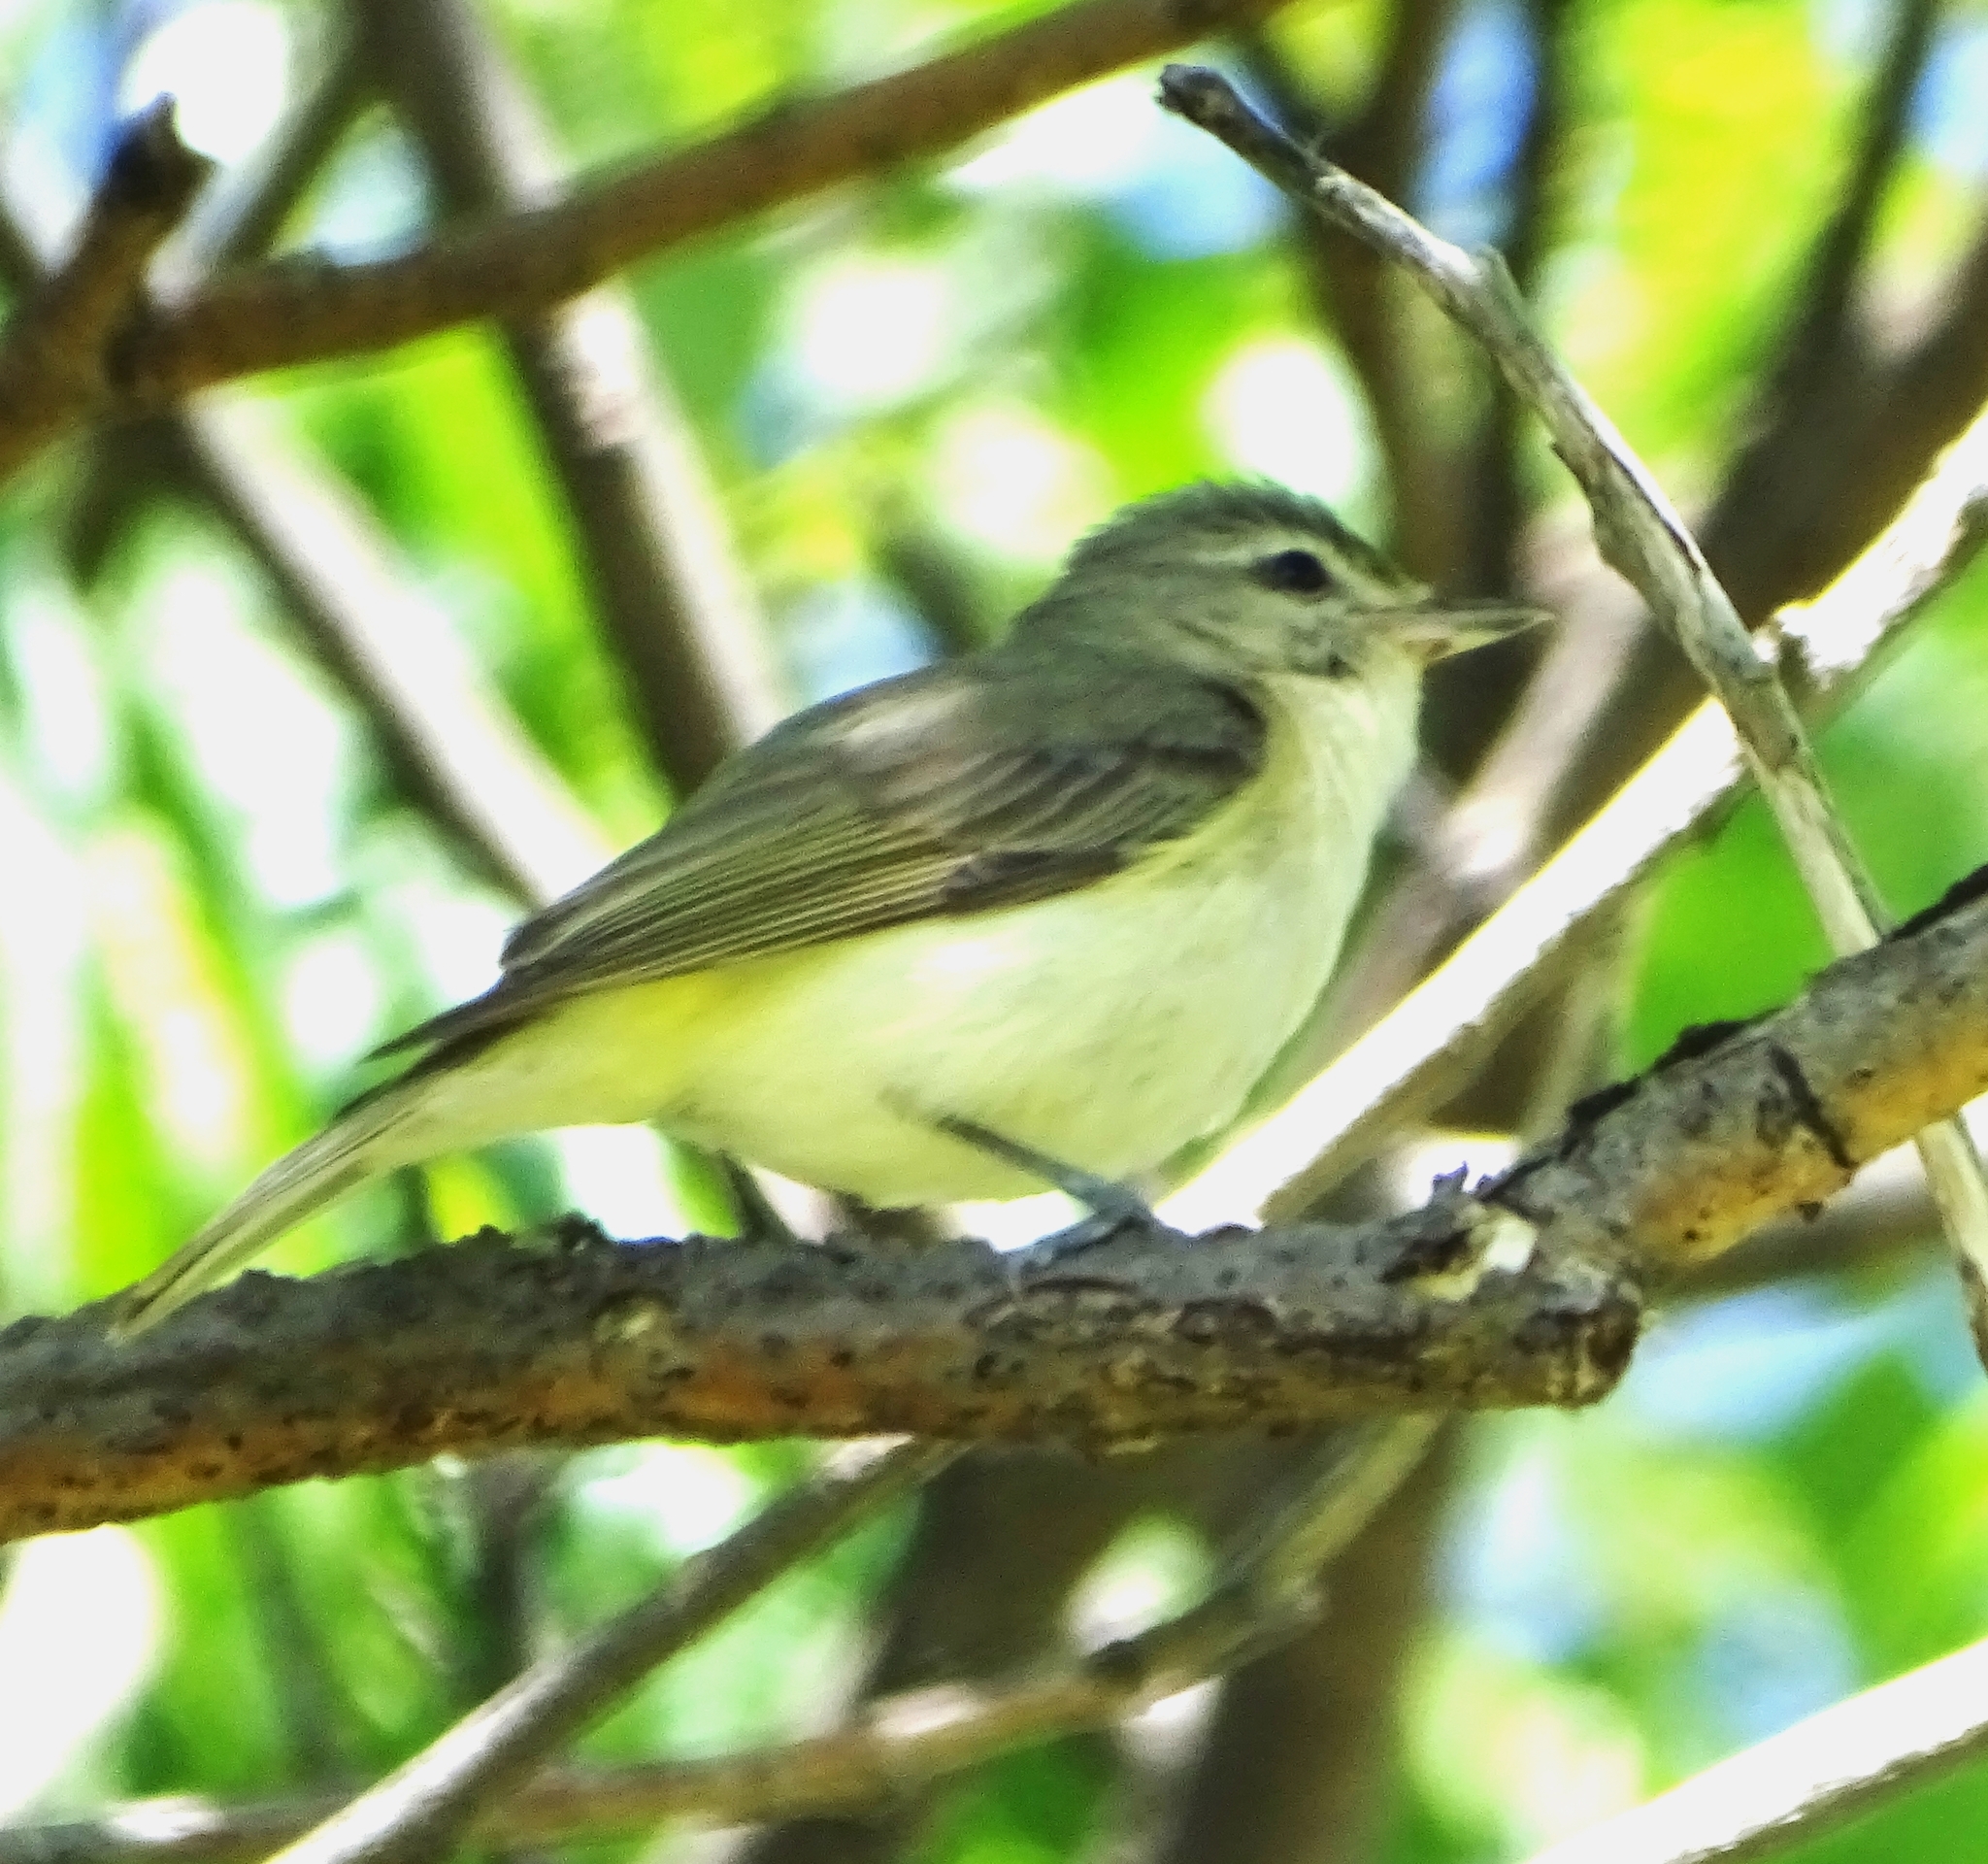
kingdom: Animalia
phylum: Chordata
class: Aves
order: Passeriformes
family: Vireonidae
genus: Vireo
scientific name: Vireo gilvus
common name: Warbling vireo
